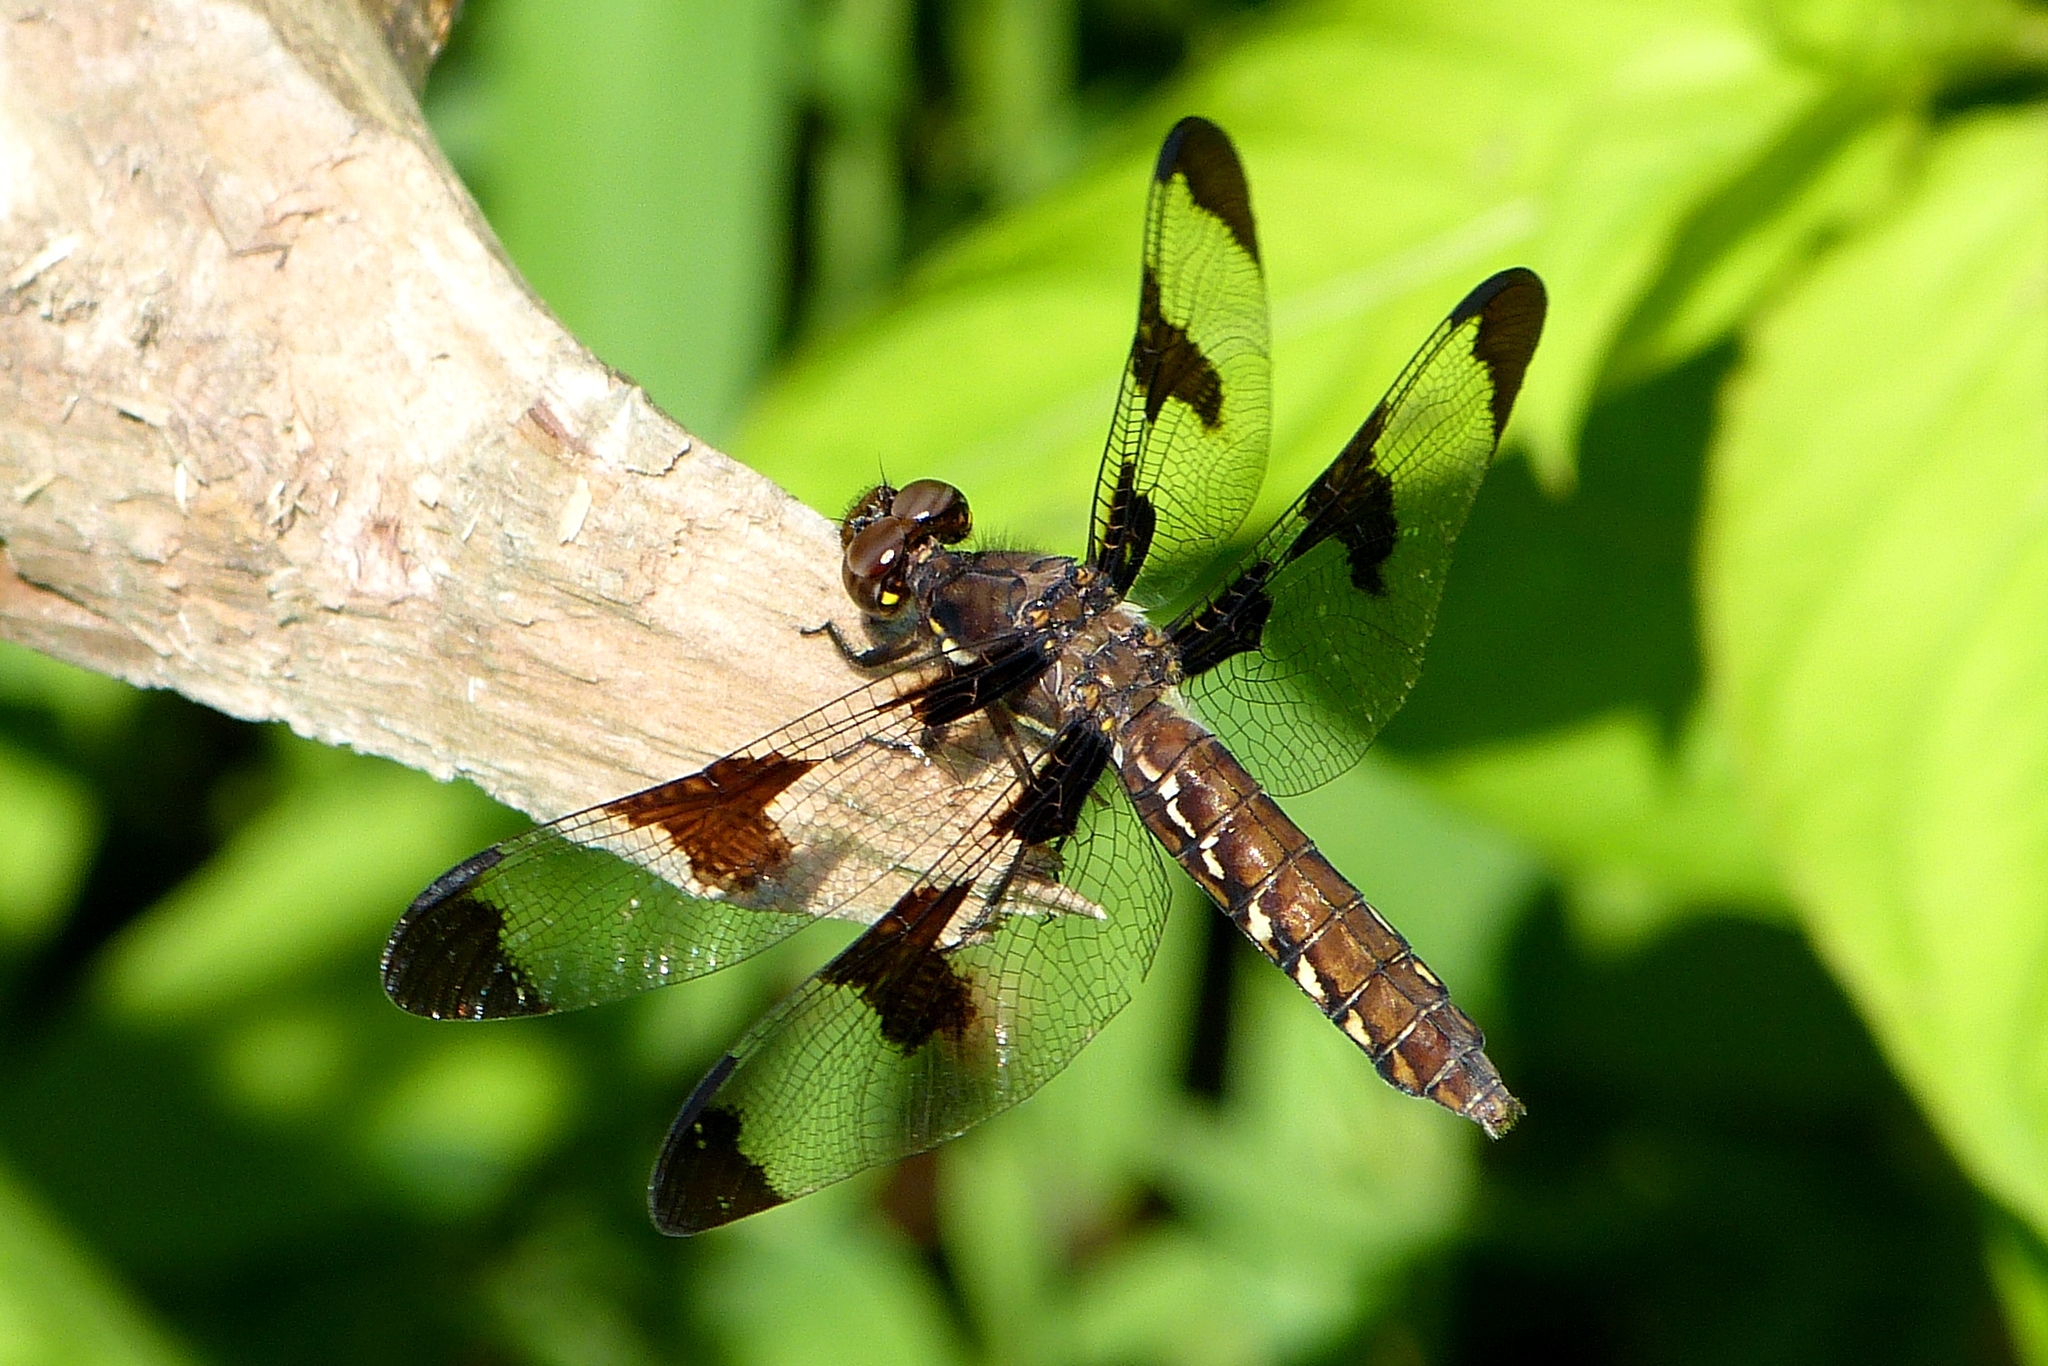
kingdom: Animalia
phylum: Arthropoda
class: Insecta
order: Odonata
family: Libellulidae
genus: Plathemis
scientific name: Plathemis lydia
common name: Common whitetail
